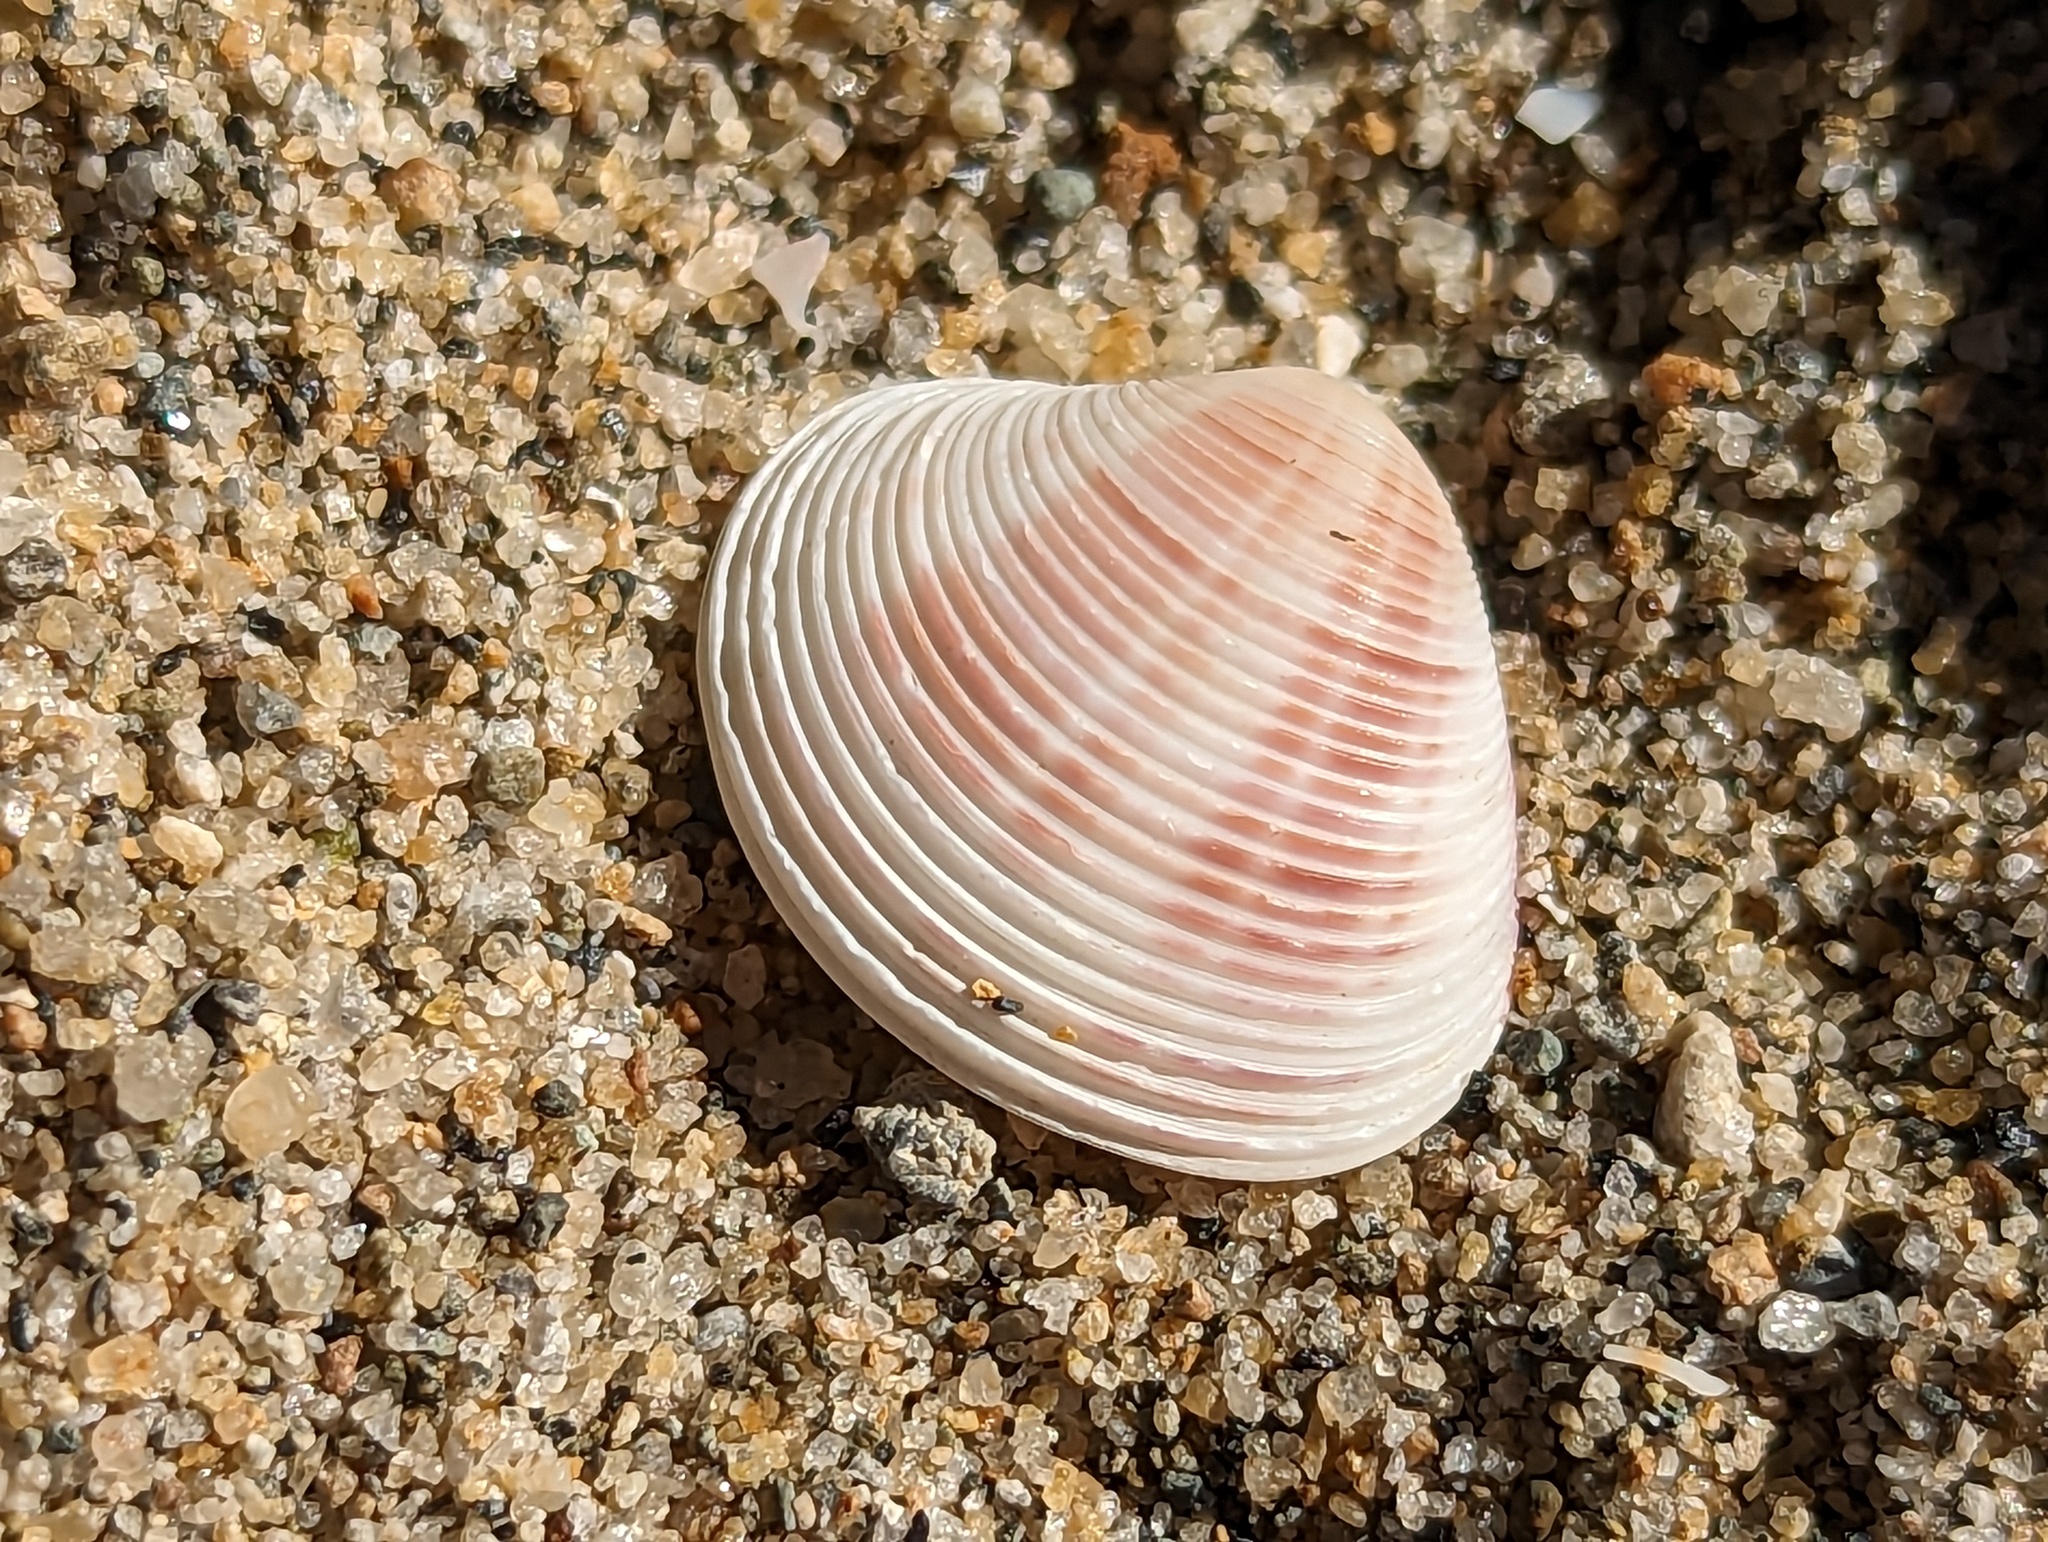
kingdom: Animalia
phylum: Mollusca
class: Bivalvia
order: Venerida
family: Veneridae
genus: Lamelliconcha
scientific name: Lamelliconcha circinata
